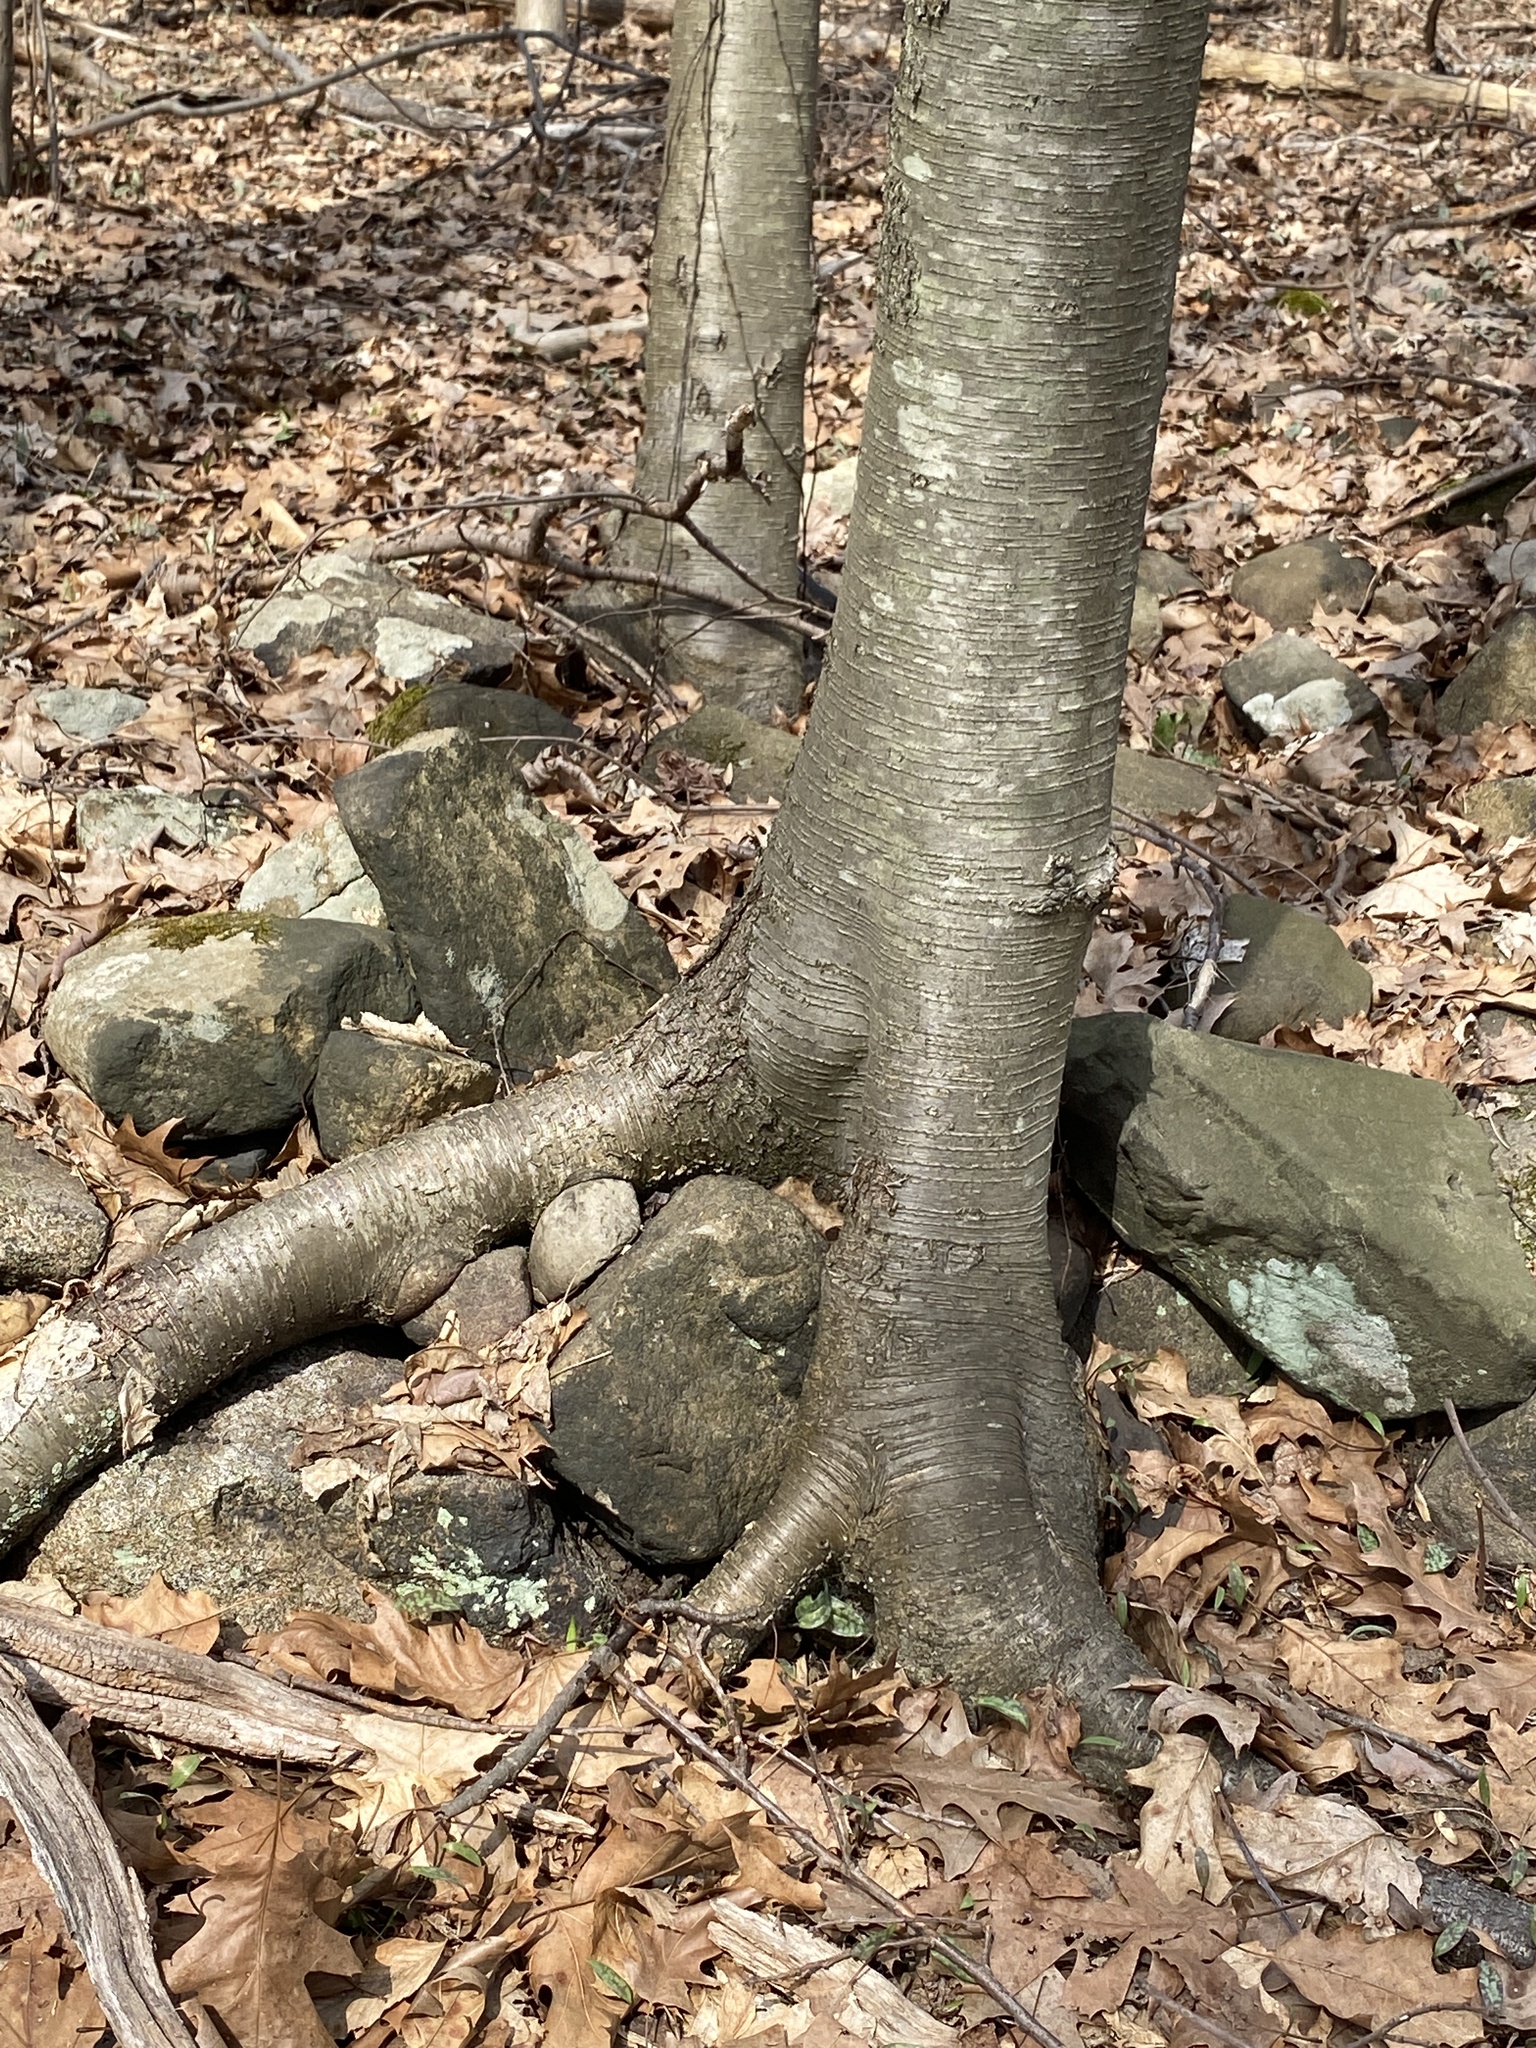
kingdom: Plantae
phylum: Tracheophyta
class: Magnoliopsida
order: Fagales
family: Betulaceae
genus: Betula
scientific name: Betula lenta
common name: Black birch
